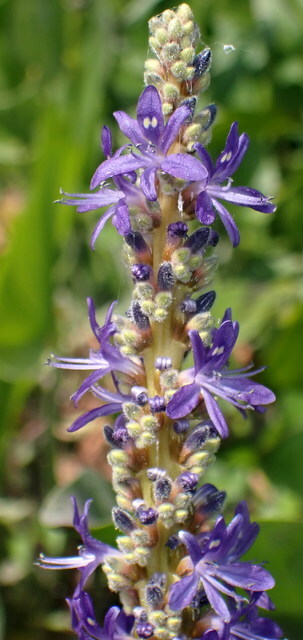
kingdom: Plantae
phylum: Tracheophyta
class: Liliopsida
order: Commelinales
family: Pontederiaceae
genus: Pontederia
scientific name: Pontederia cordata
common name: Pickerelweed
